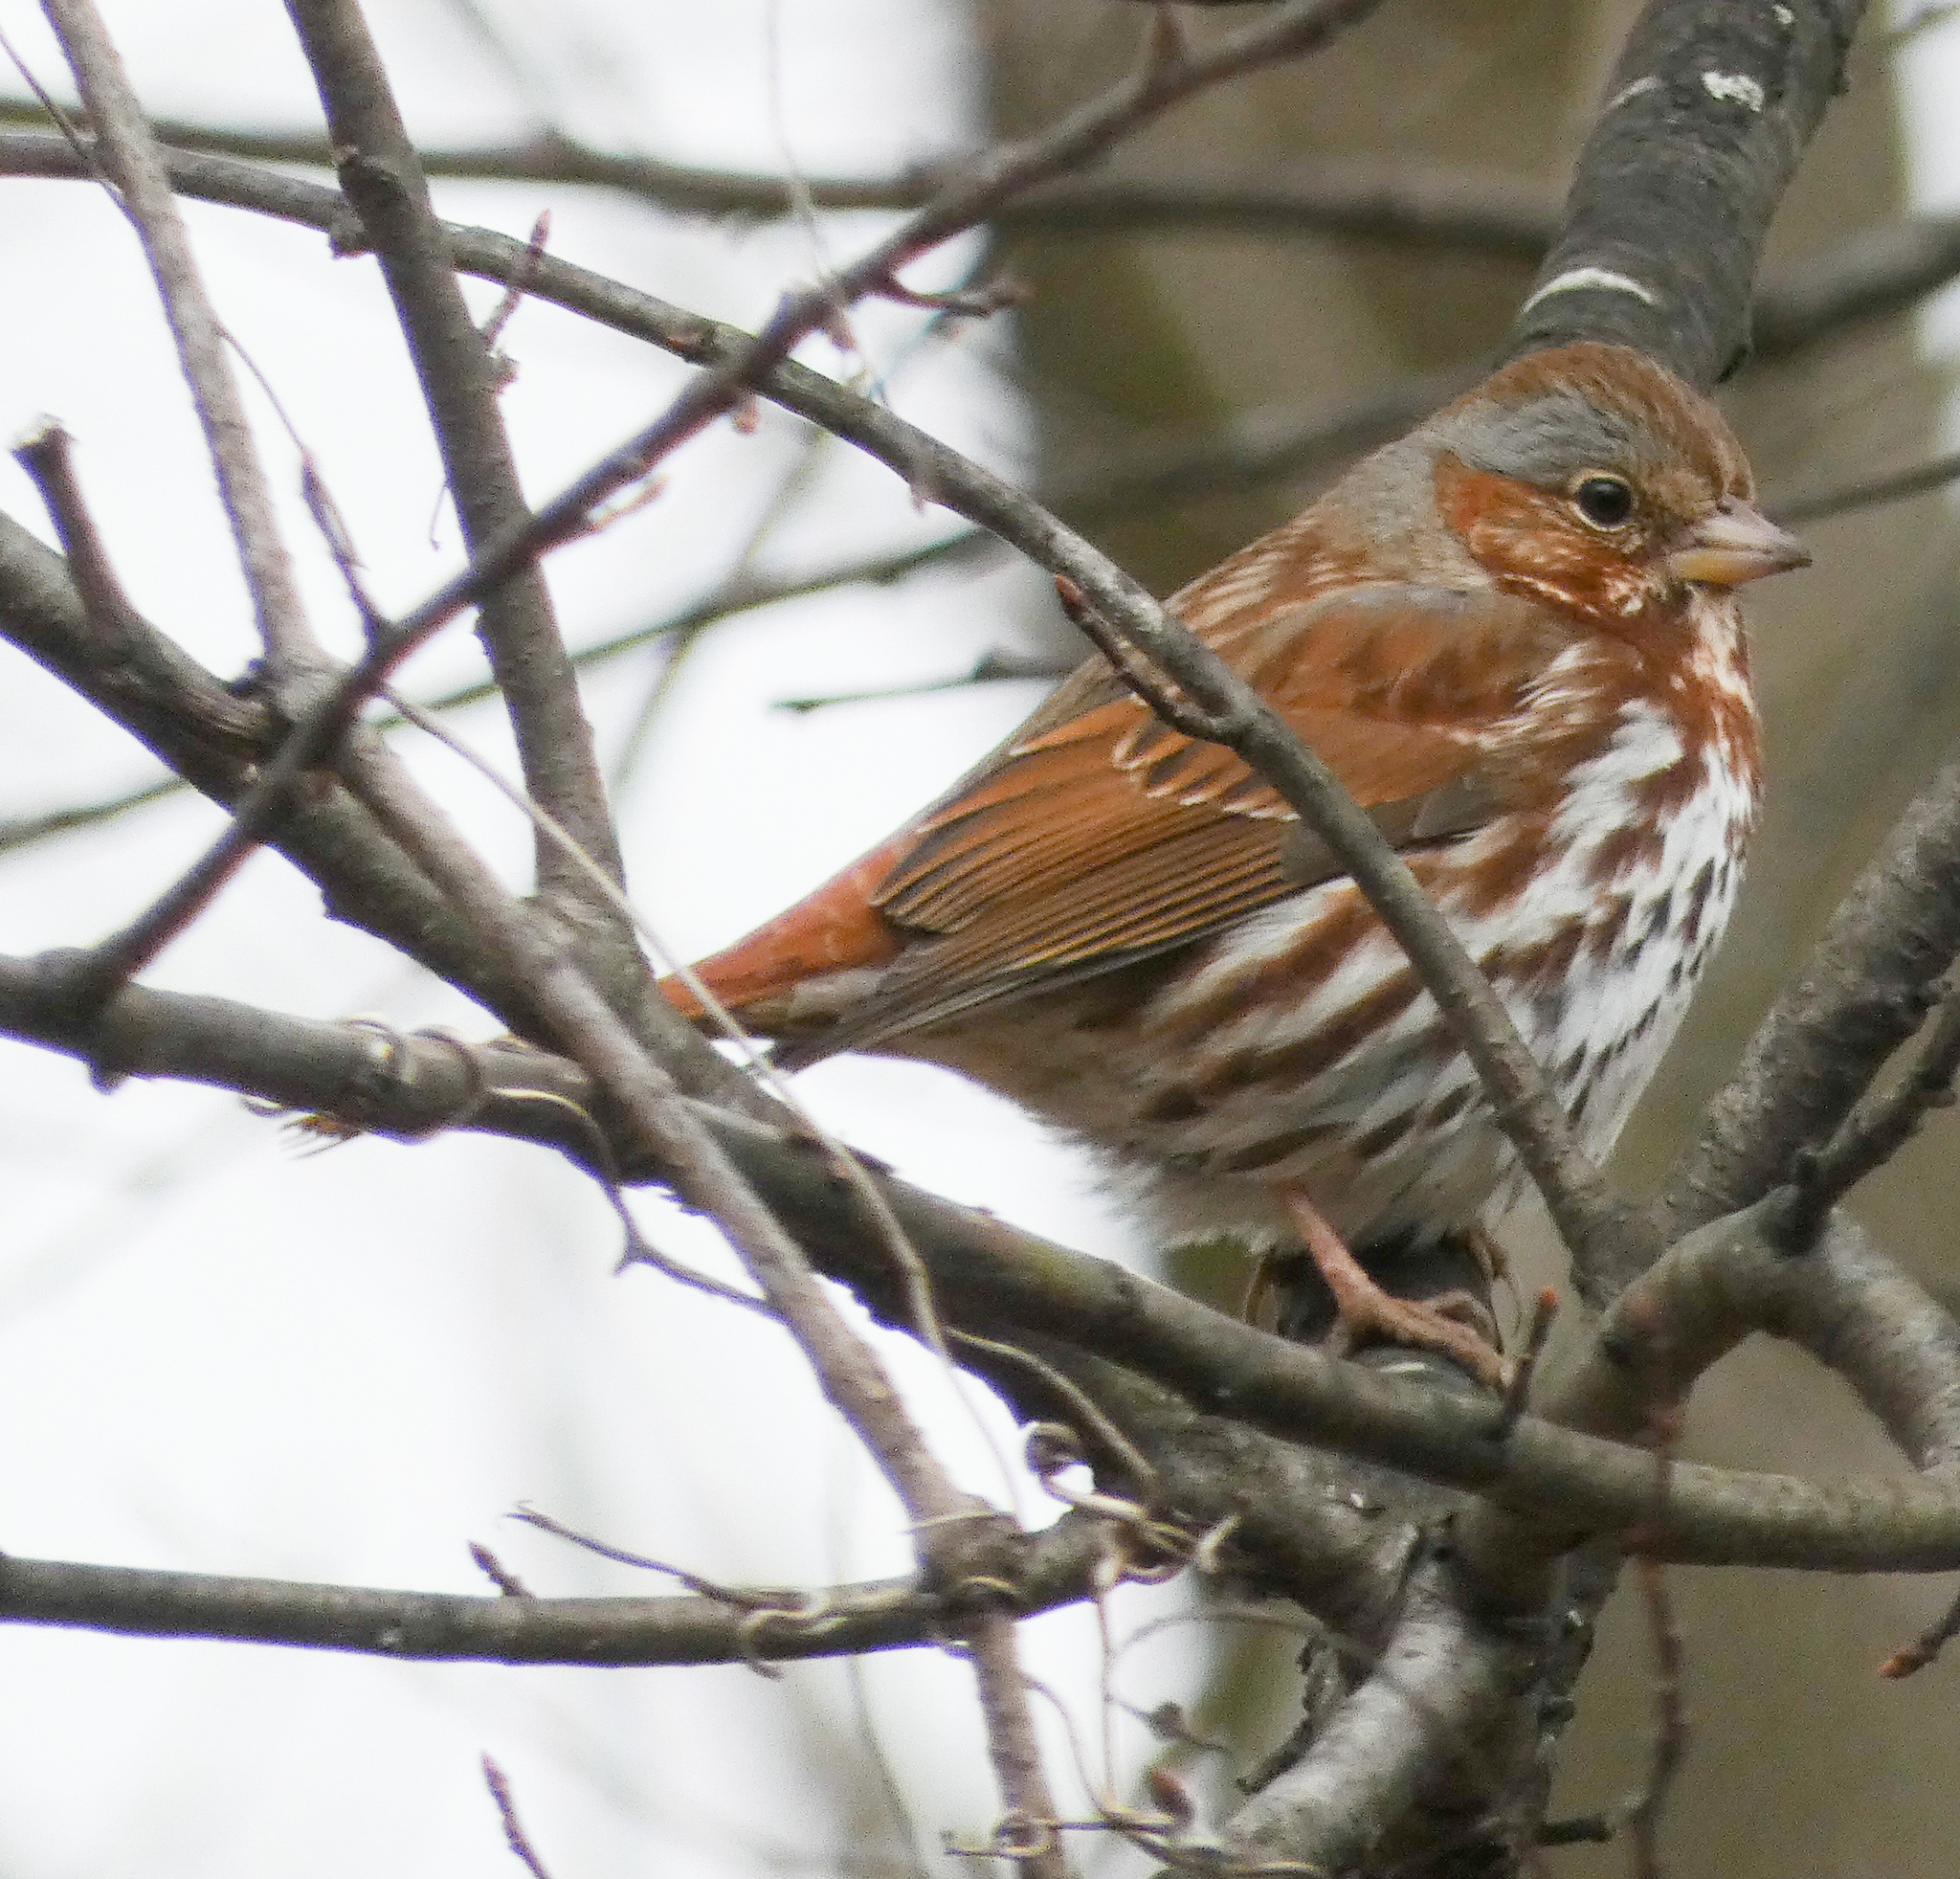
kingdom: Animalia
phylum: Chordata
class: Aves
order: Passeriformes
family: Passerellidae
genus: Passerella
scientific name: Passerella iliaca
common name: Fox sparrow
